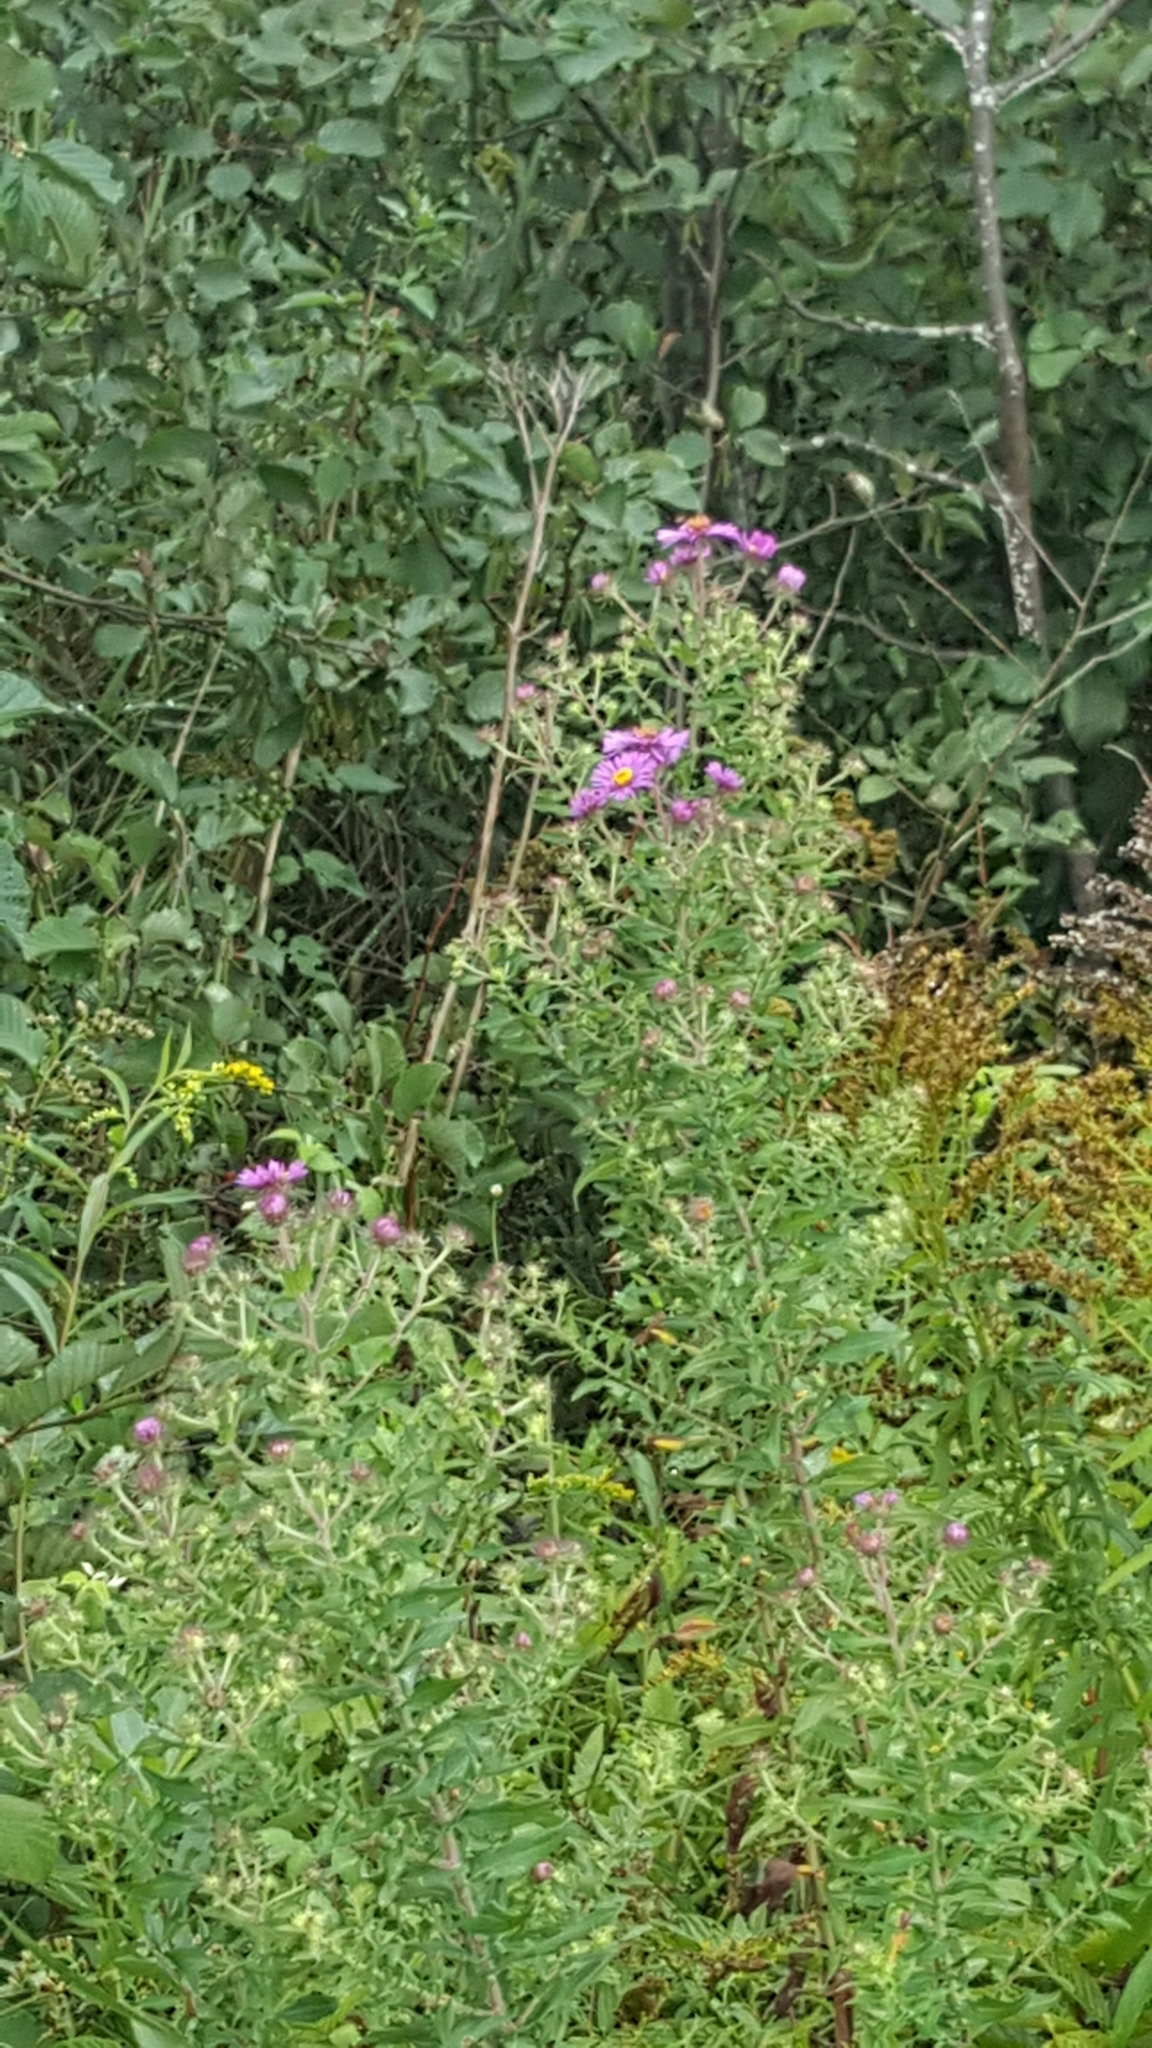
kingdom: Plantae
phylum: Tracheophyta
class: Magnoliopsida
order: Asterales
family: Asteraceae
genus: Symphyotrichum
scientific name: Symphyotrichum novae-angliae
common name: Michaelmas daisy
